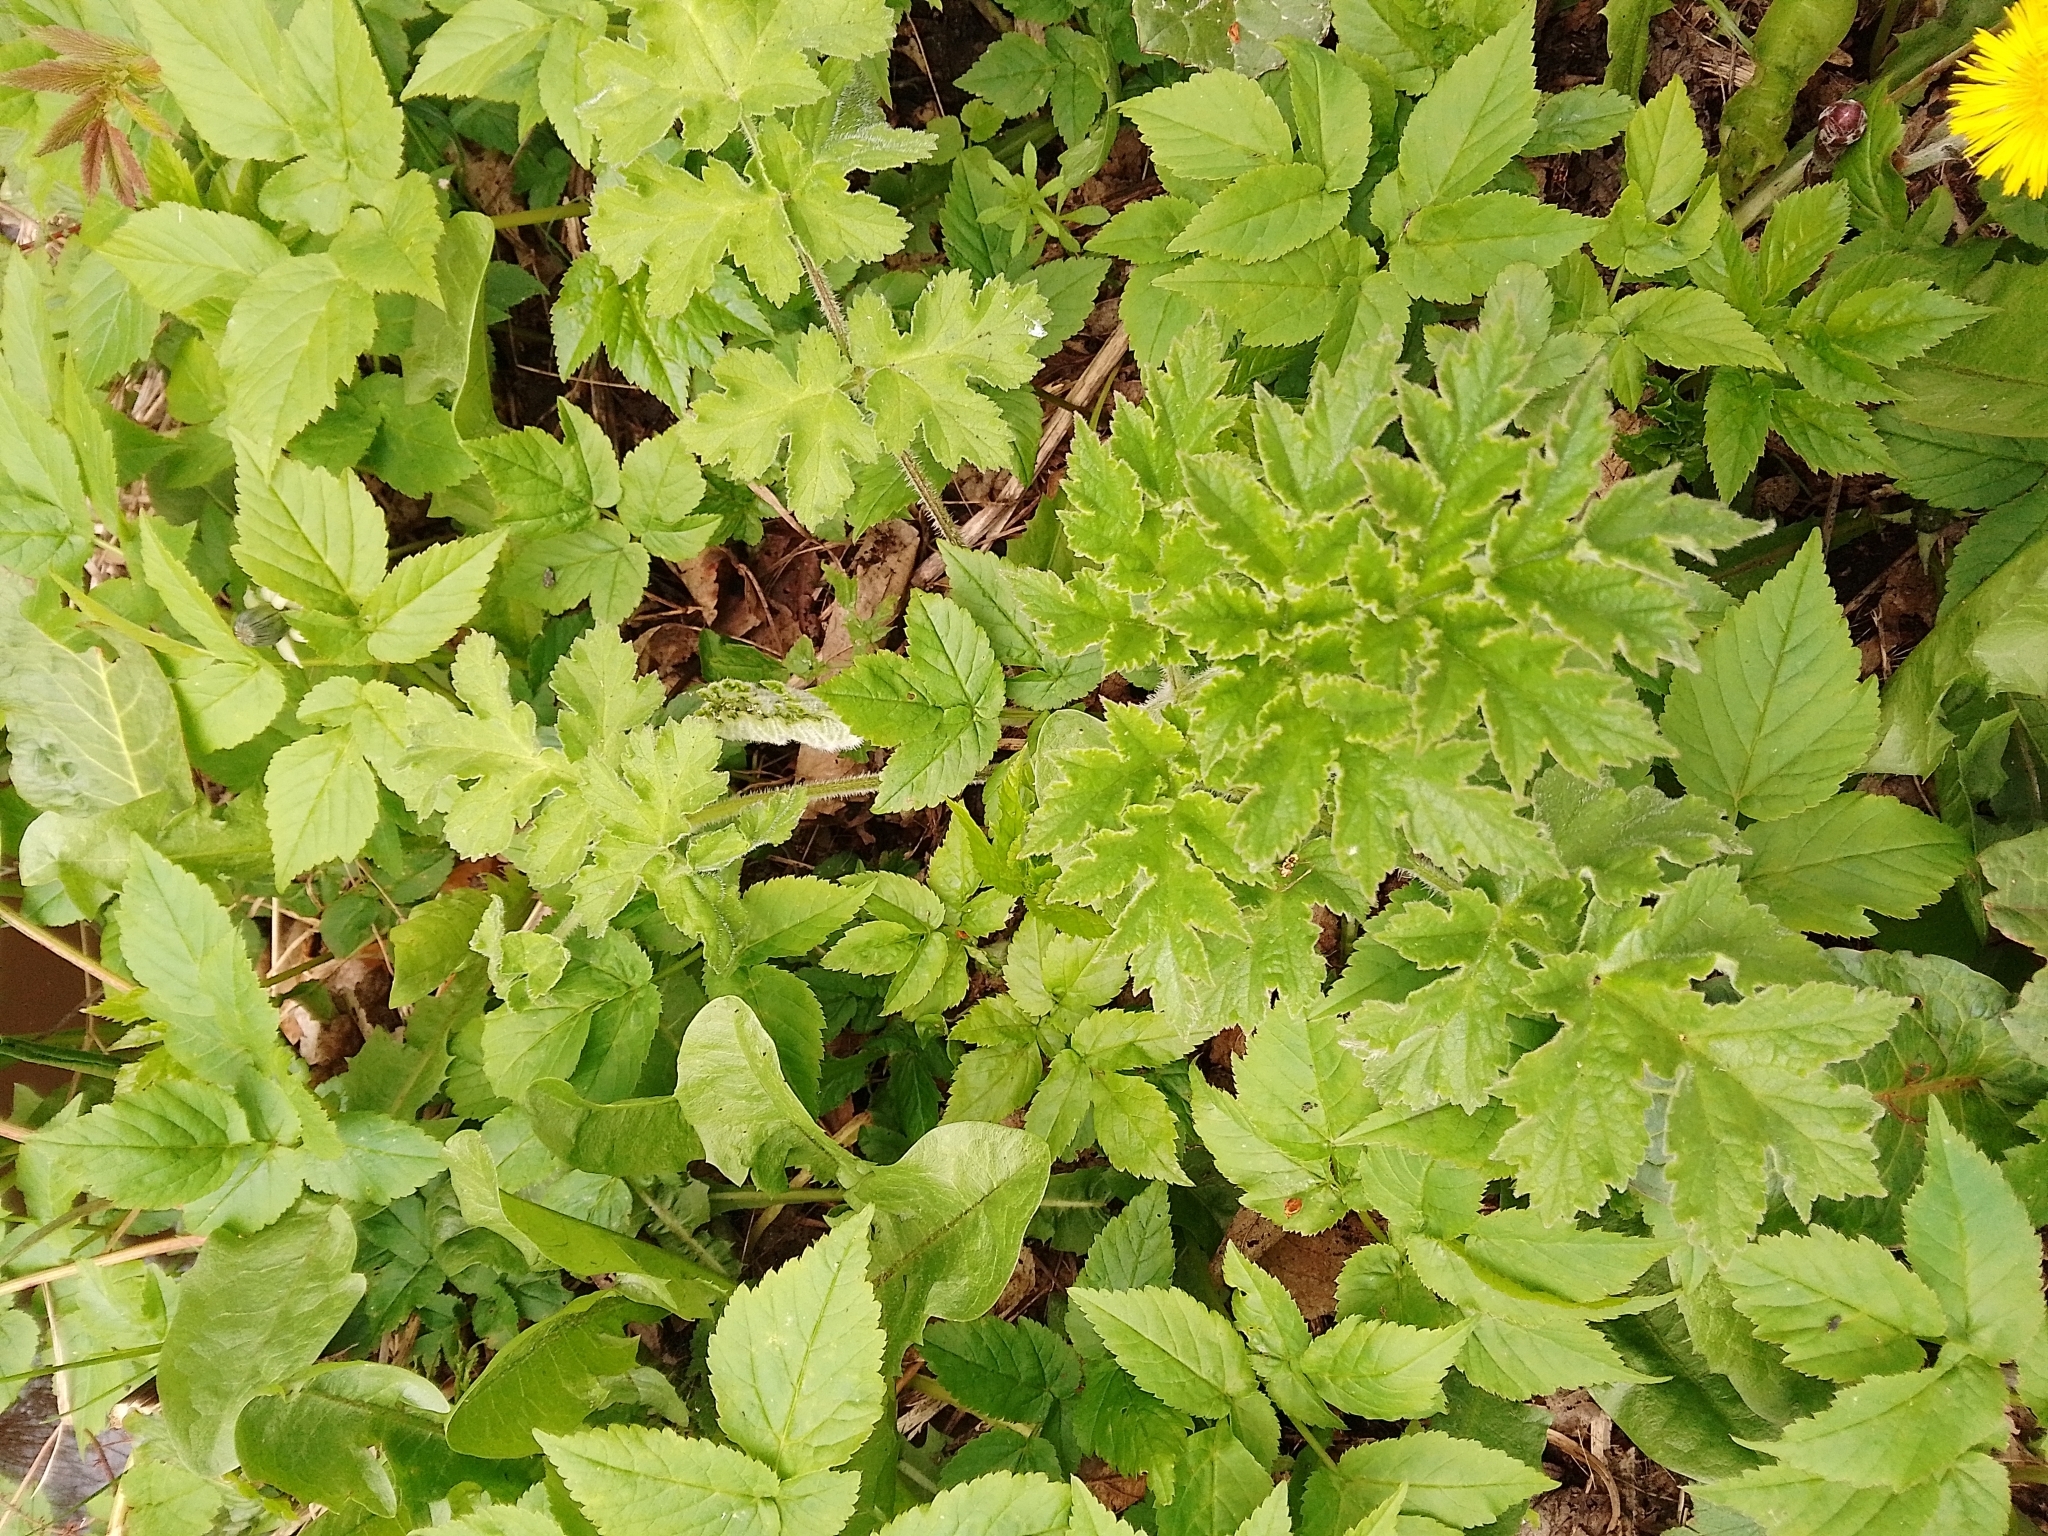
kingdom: Plantae
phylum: Tracheophyta
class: Magnoliopsida
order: Apiales
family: Apiaceae
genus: Heracleum
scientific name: Heracleum sphondylium
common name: Hogweed
